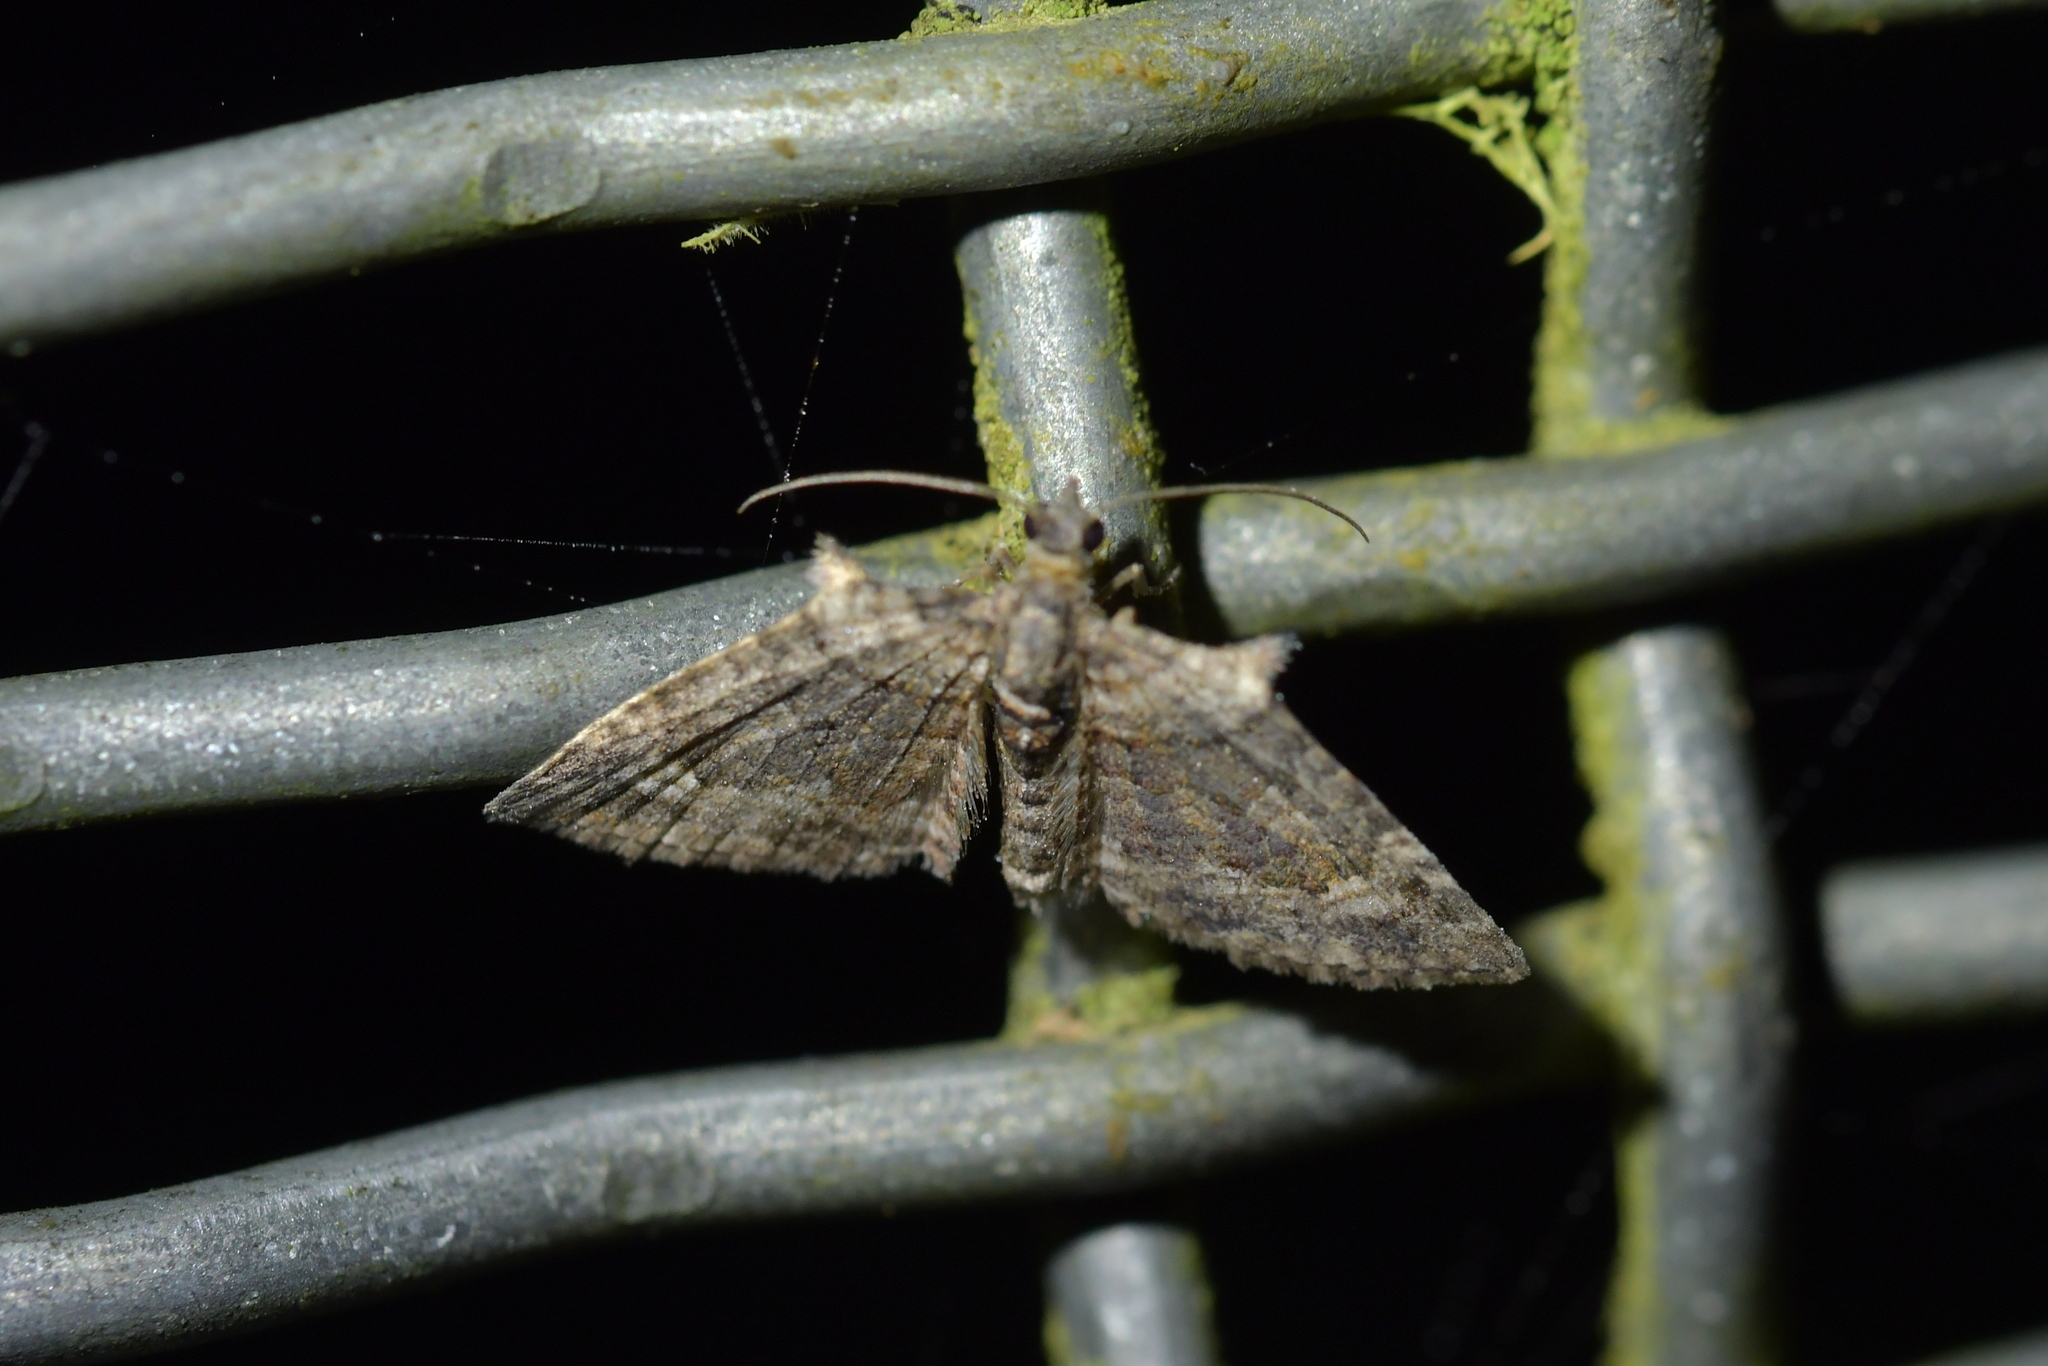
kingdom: Animalia
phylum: Arthropoda
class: Insecta
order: Lepidoptera
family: Geometridae
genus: Phrissogonus
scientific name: Phrissogonus laticostata
